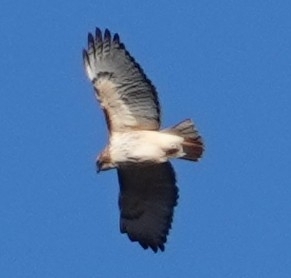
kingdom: Animalia
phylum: Chordata
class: Aves
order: Accipitriformes
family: Accipitridae
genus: Buteo
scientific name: Buteo jamaicensis
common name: Red-tailed hawk
